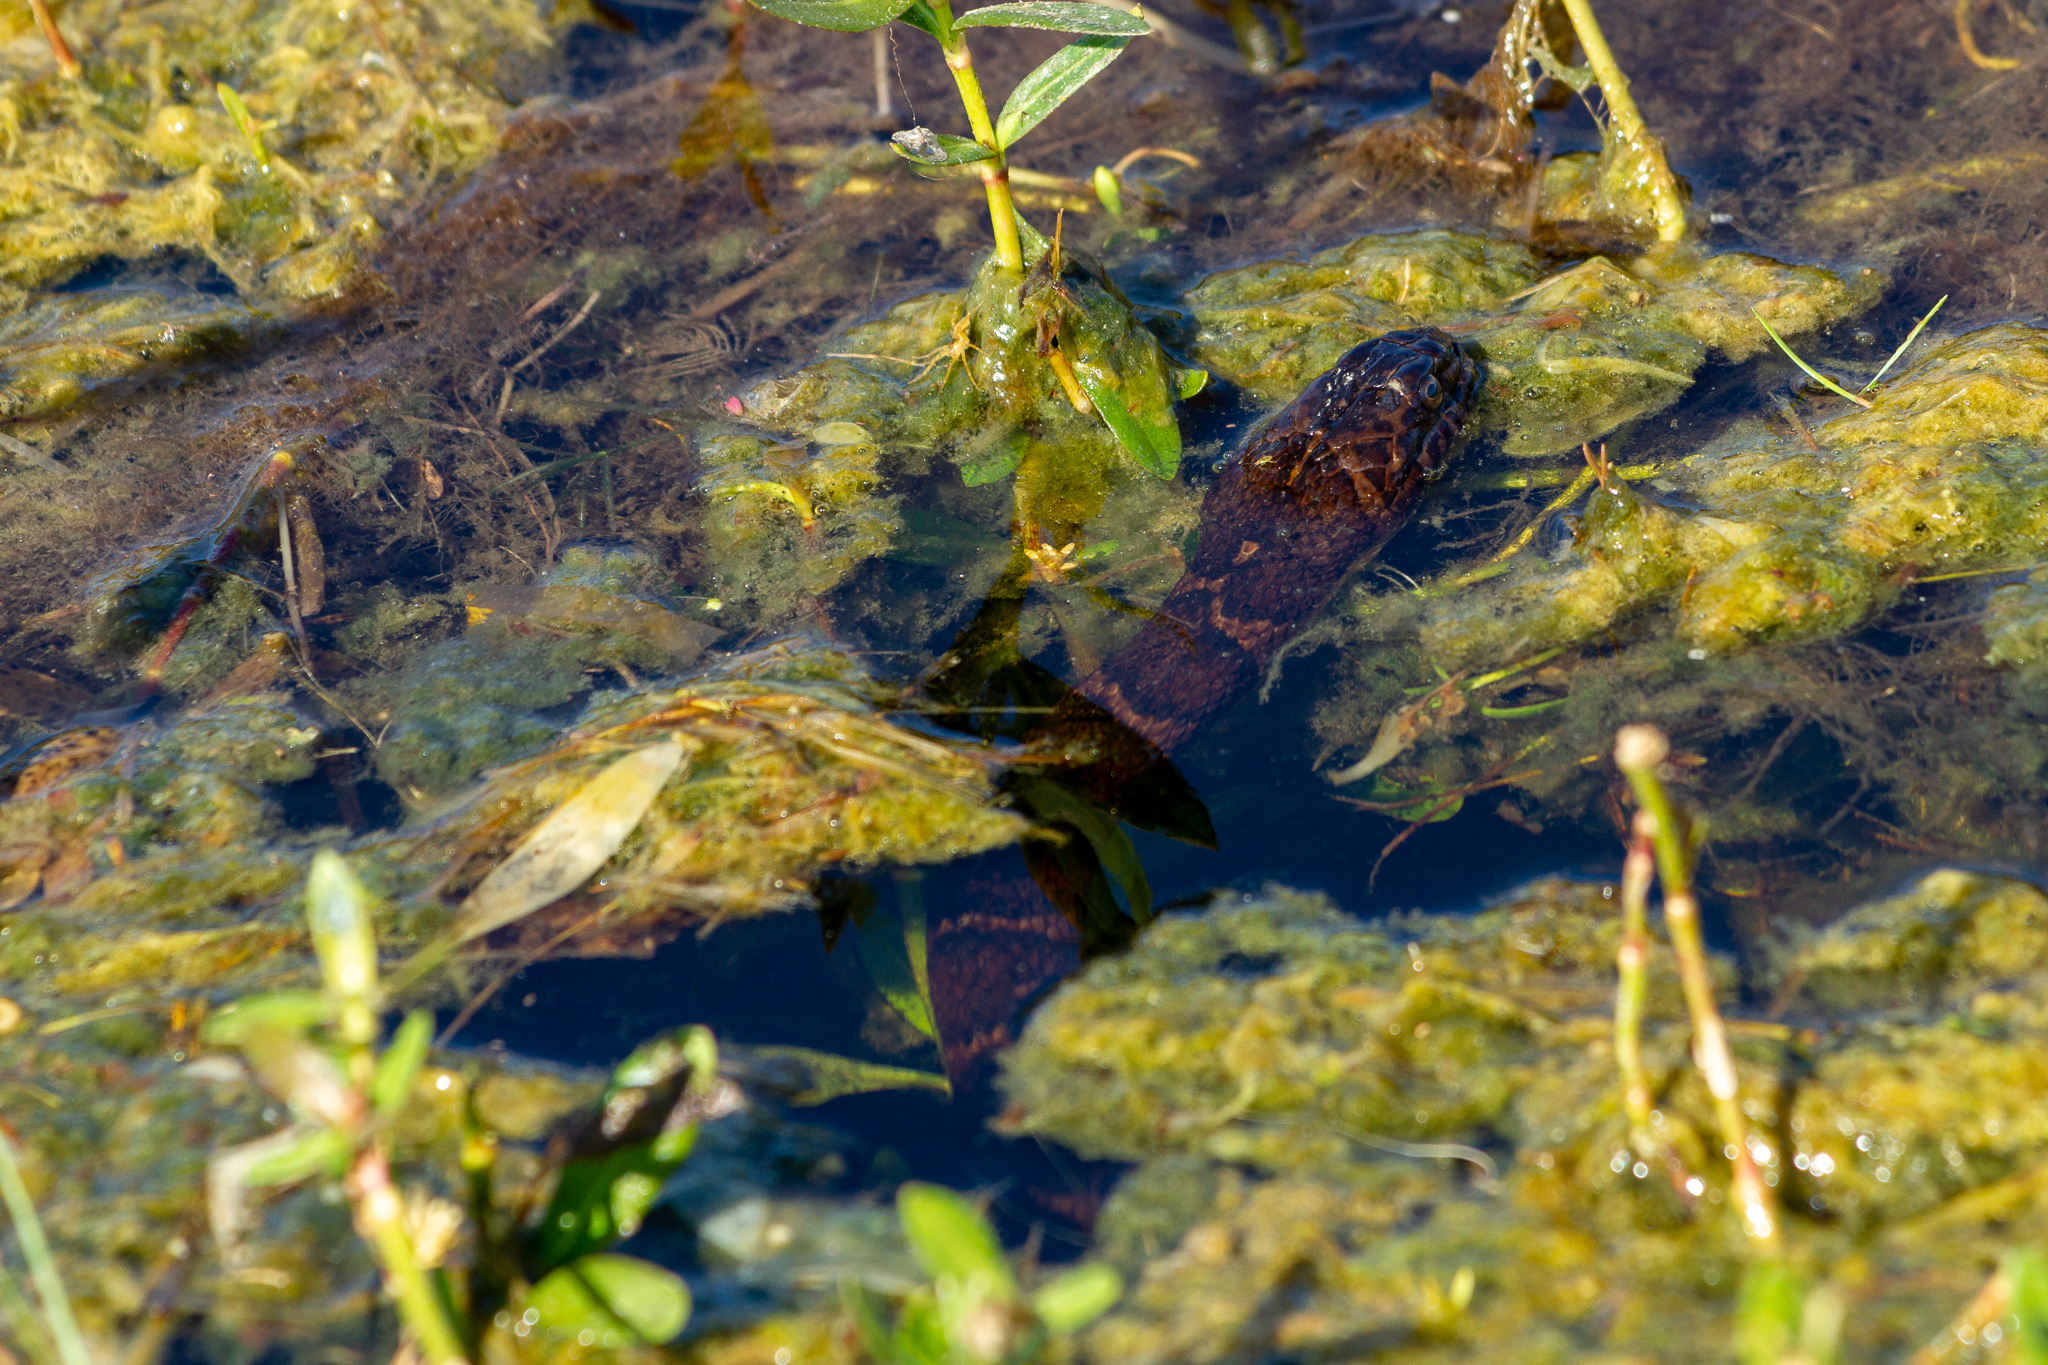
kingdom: Animalia
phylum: Chordata
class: Squamata
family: Colubridae
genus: Nerodia
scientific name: Nerodia sipedon
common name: Northern water snake
